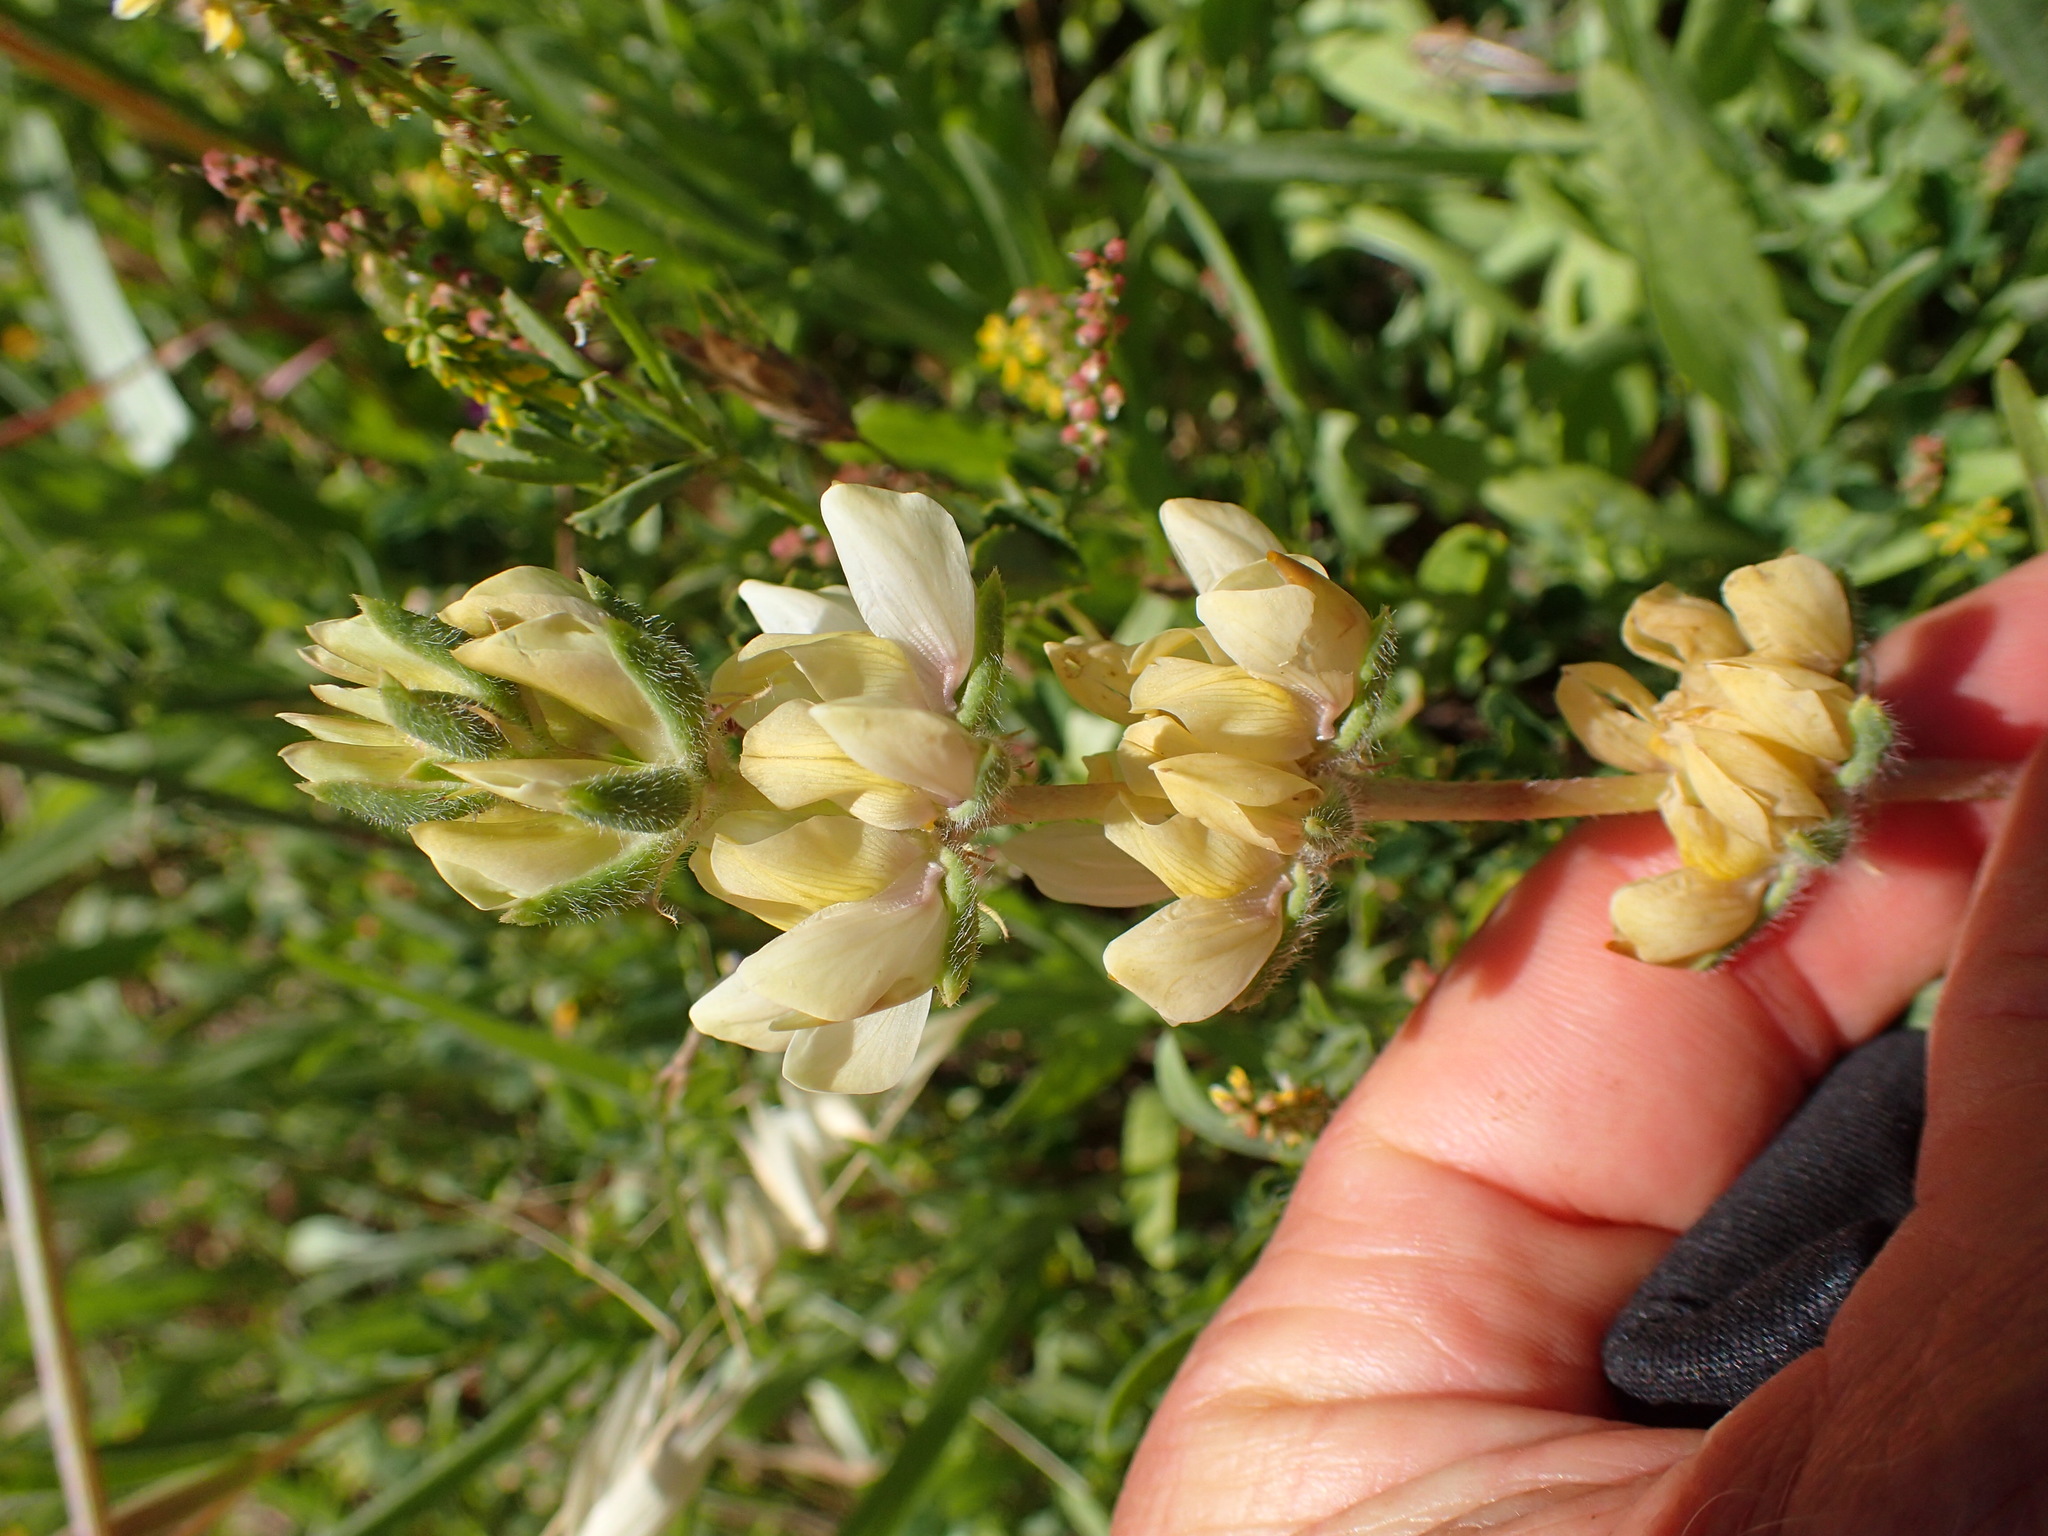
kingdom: Plantae
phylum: Tracheophyta
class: Magnoliopsida
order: Fabales
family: Fabaceae
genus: Lupinus
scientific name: Lupinus microcarpus
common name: Chick lupine
